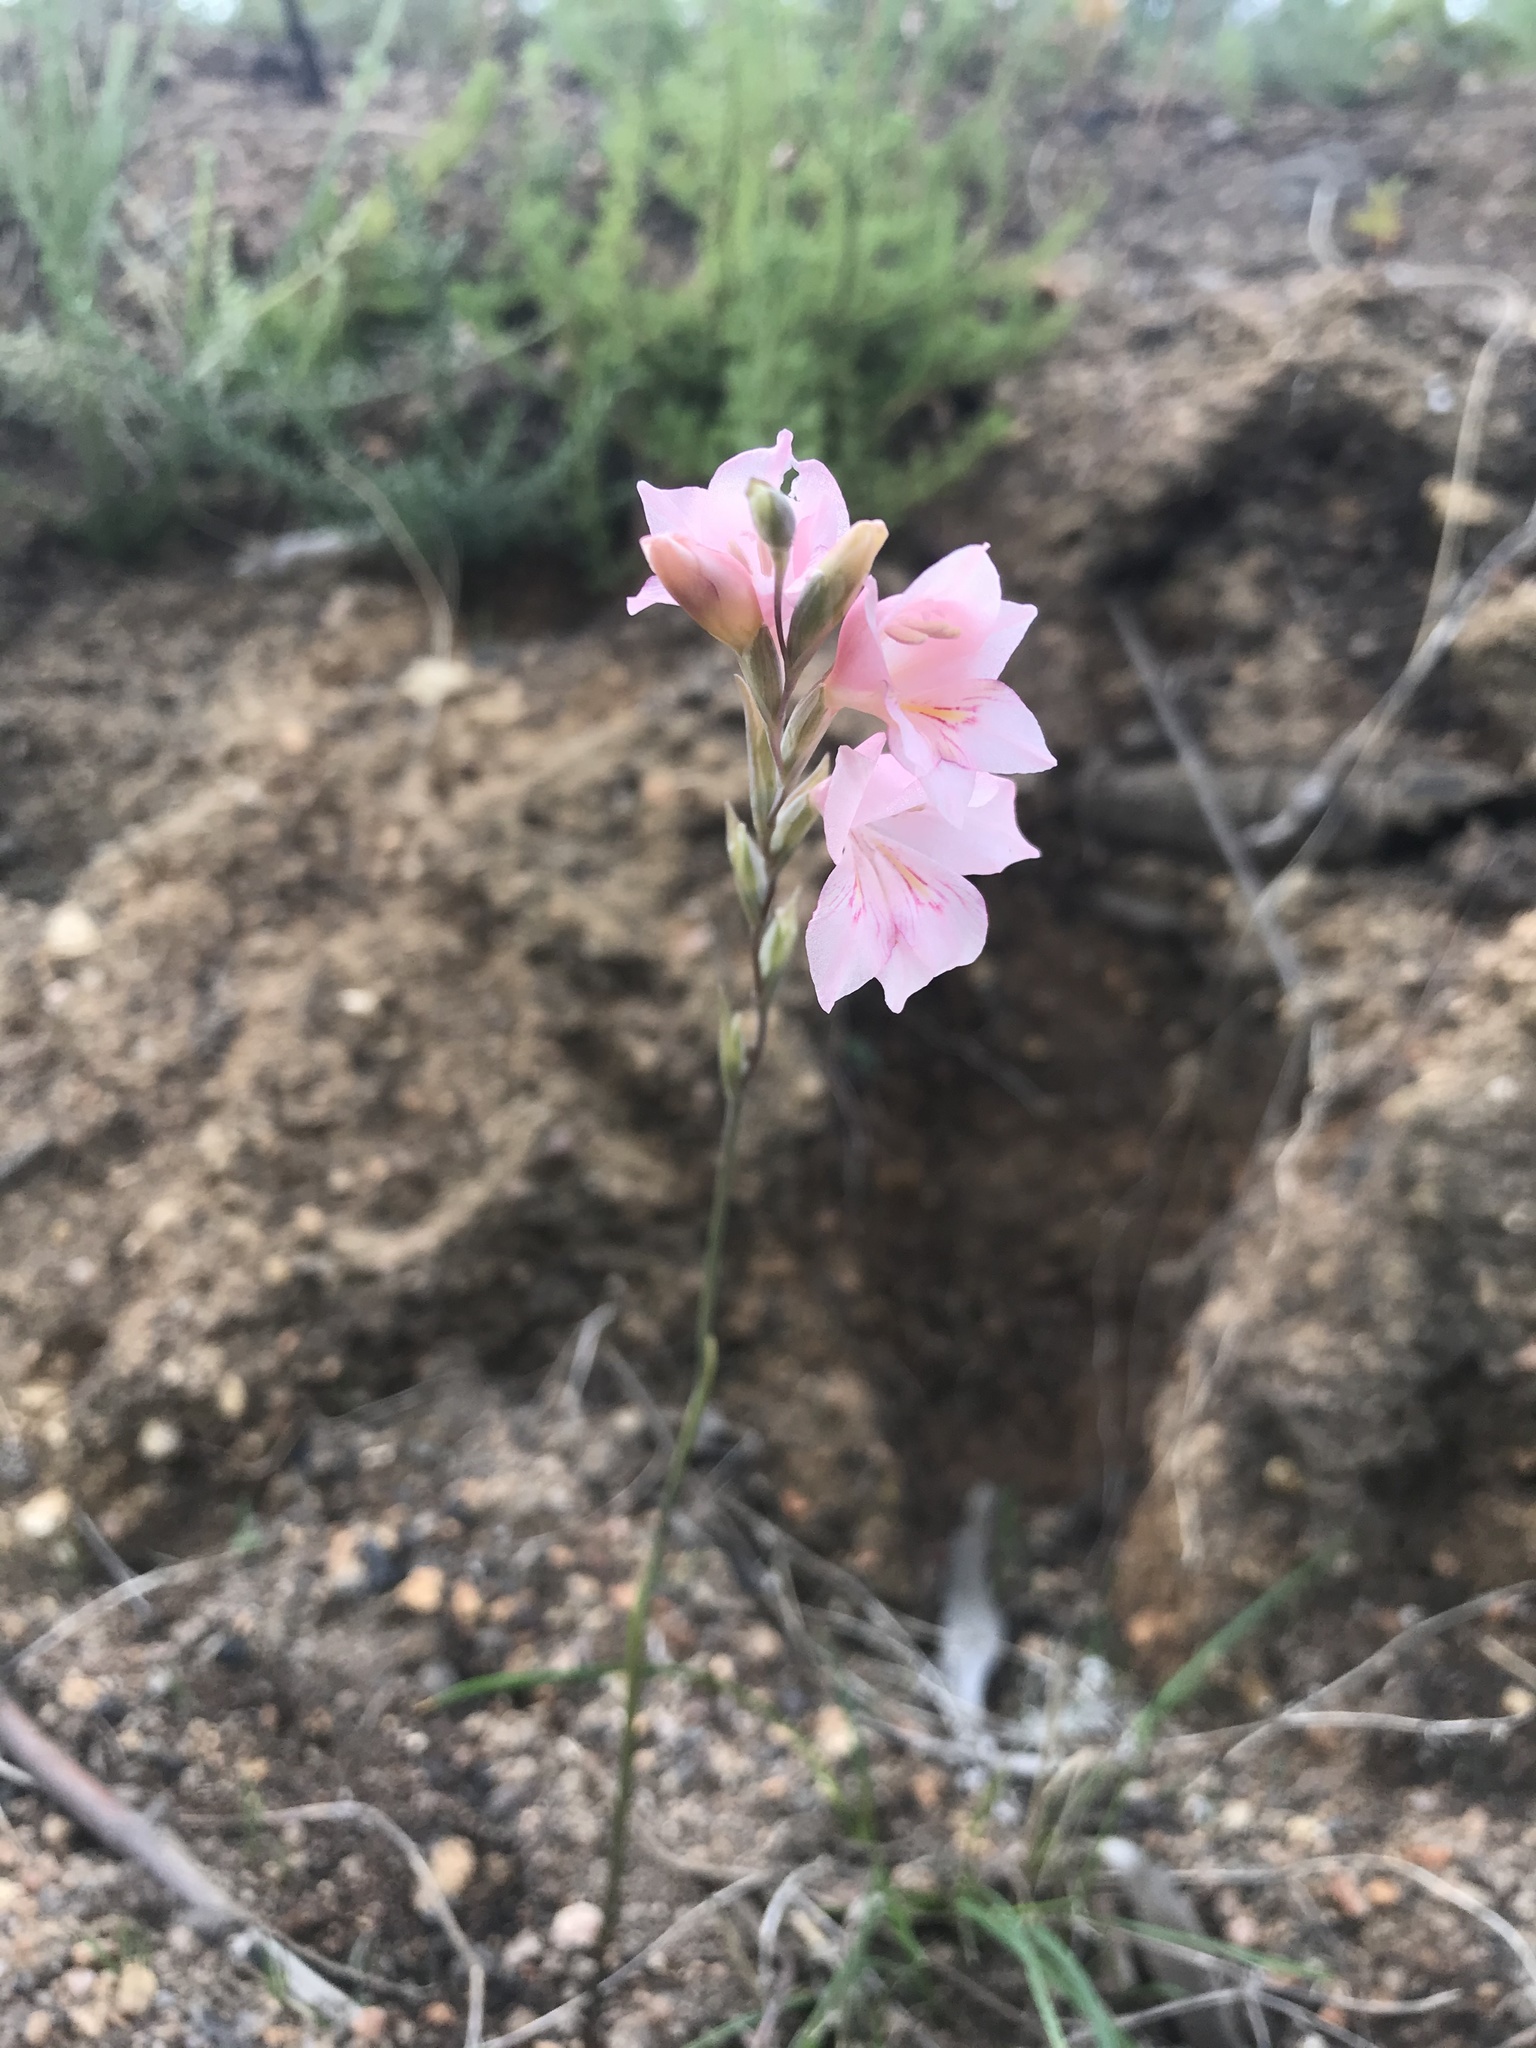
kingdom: Plantae
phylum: Tracheophyta
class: Liliopsida
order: Asparagales
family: Iridaceae
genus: Gladiolus
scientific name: Gladiolus brevifolius
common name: March pypie
